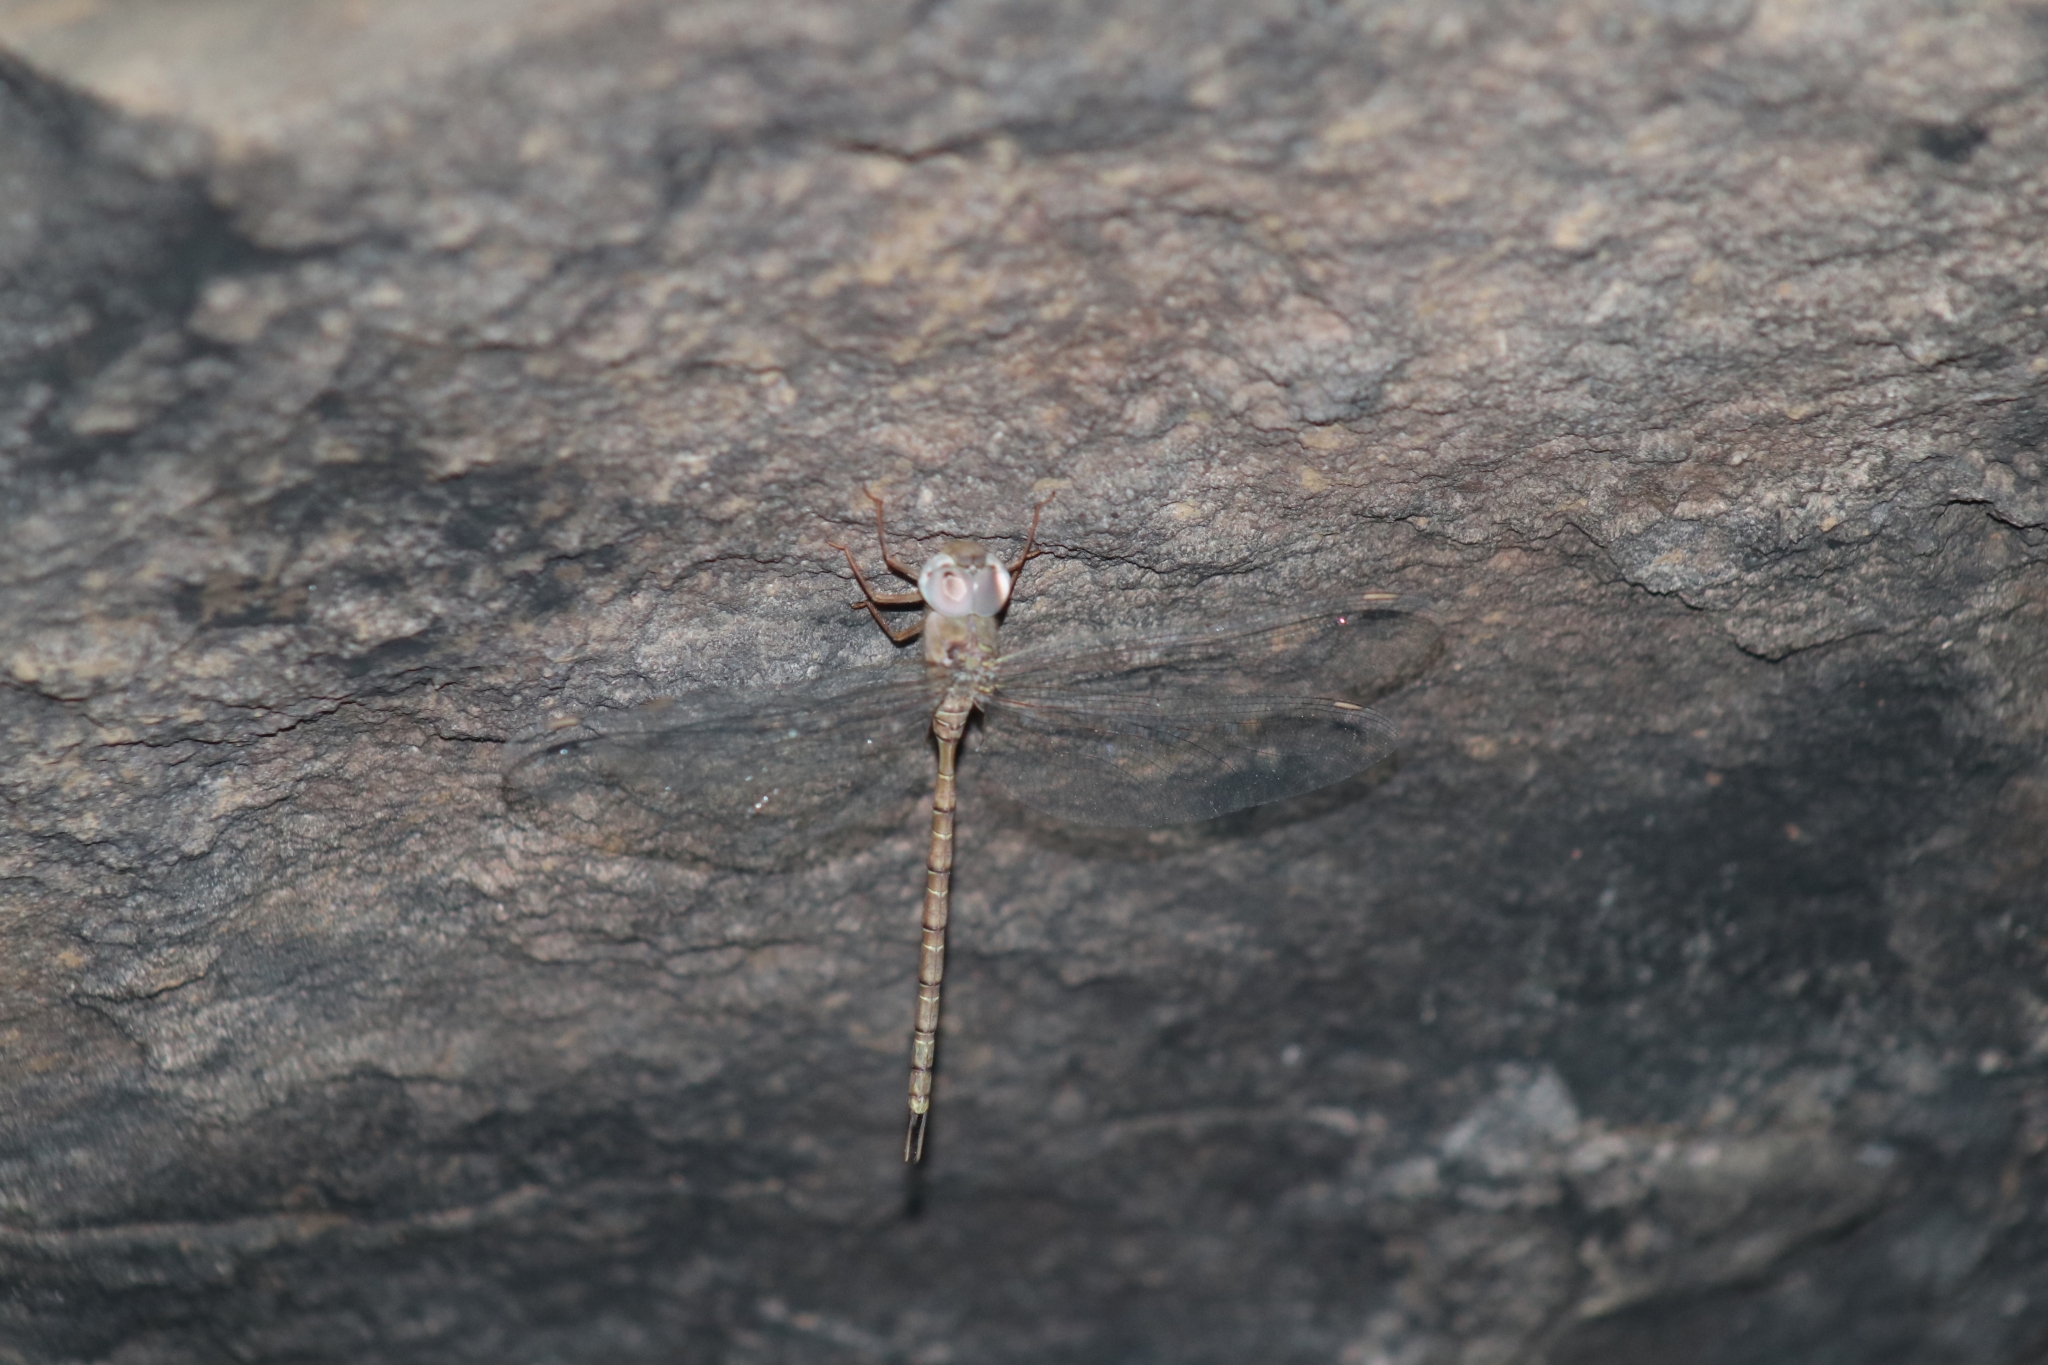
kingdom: Animalia
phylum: Arthropoda
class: Insecta
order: Odonata
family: Aeshnidae
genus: Gynacantha
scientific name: Gynacantha nourlangie
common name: Cave duskhawker
